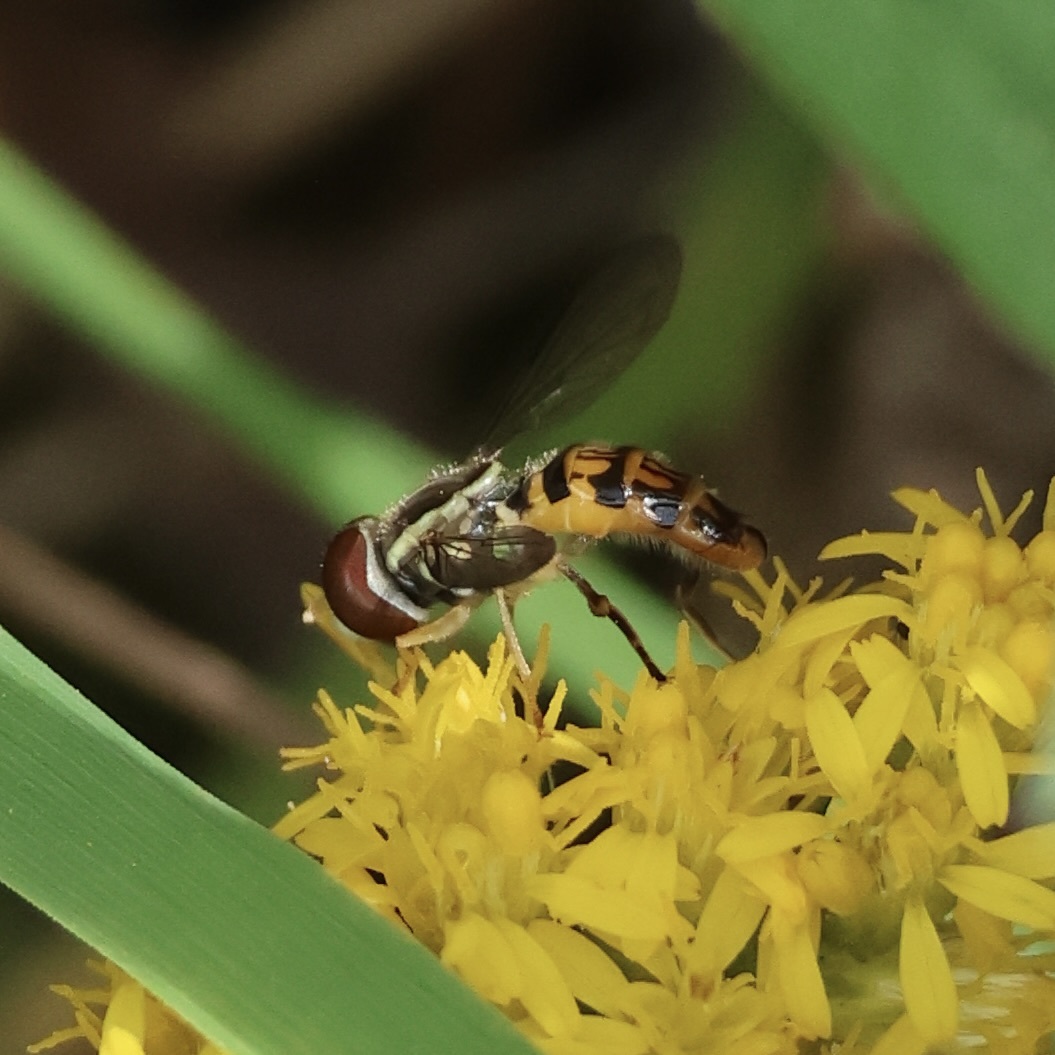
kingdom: Animalia
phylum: Arthropoda
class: Insecta
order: Diptera
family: Syrphidae
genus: Toxomerus
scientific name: Toxomerus geminatus
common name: Eastern calligrapher
